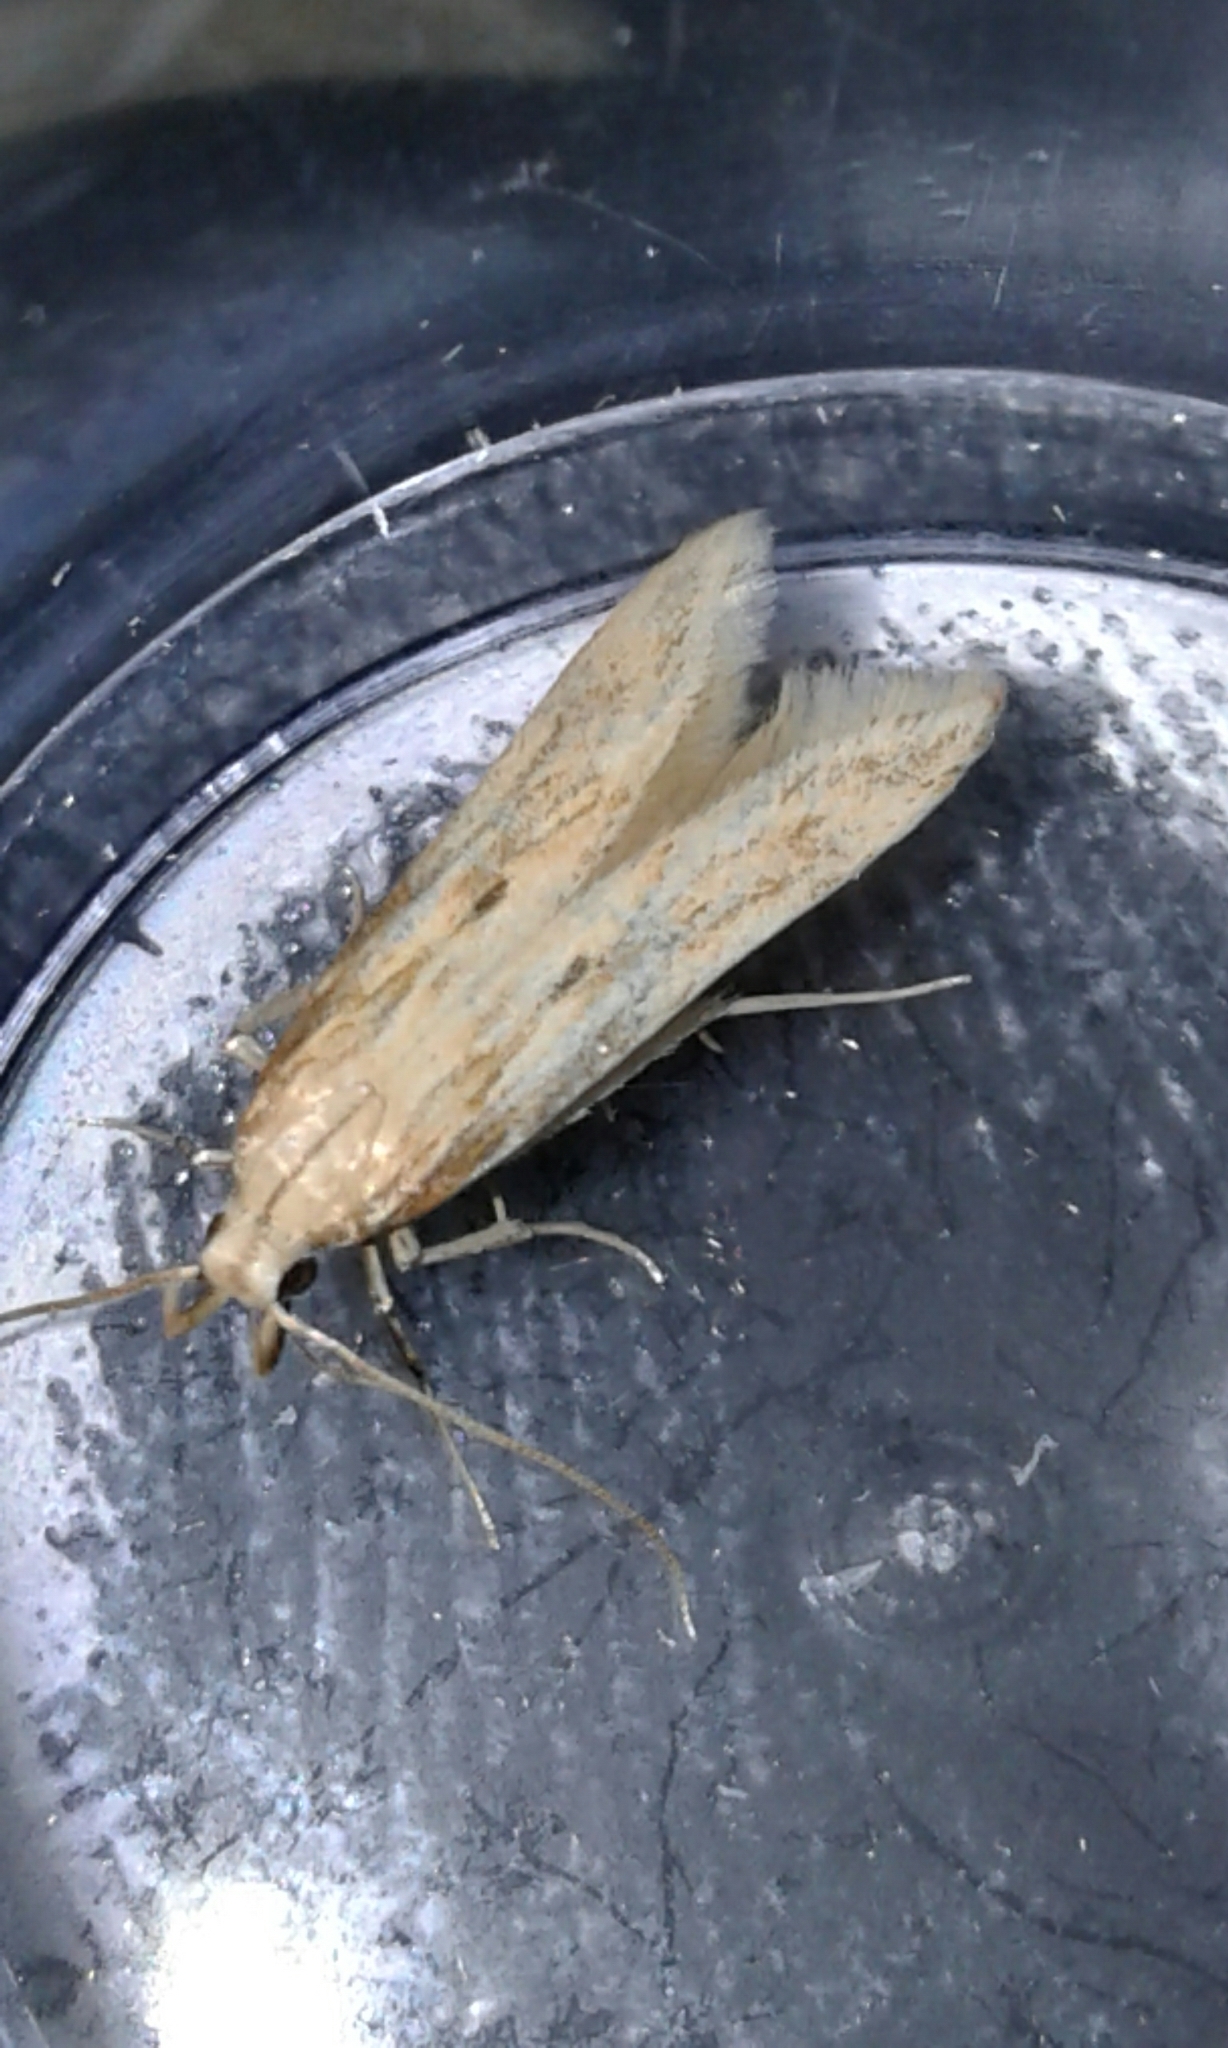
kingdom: Animalia
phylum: Arthropoda
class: Insecta
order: Lepidoptera
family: Gelechiidae
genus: Metzneria
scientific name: Metzneria lappella
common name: Burdock neb
